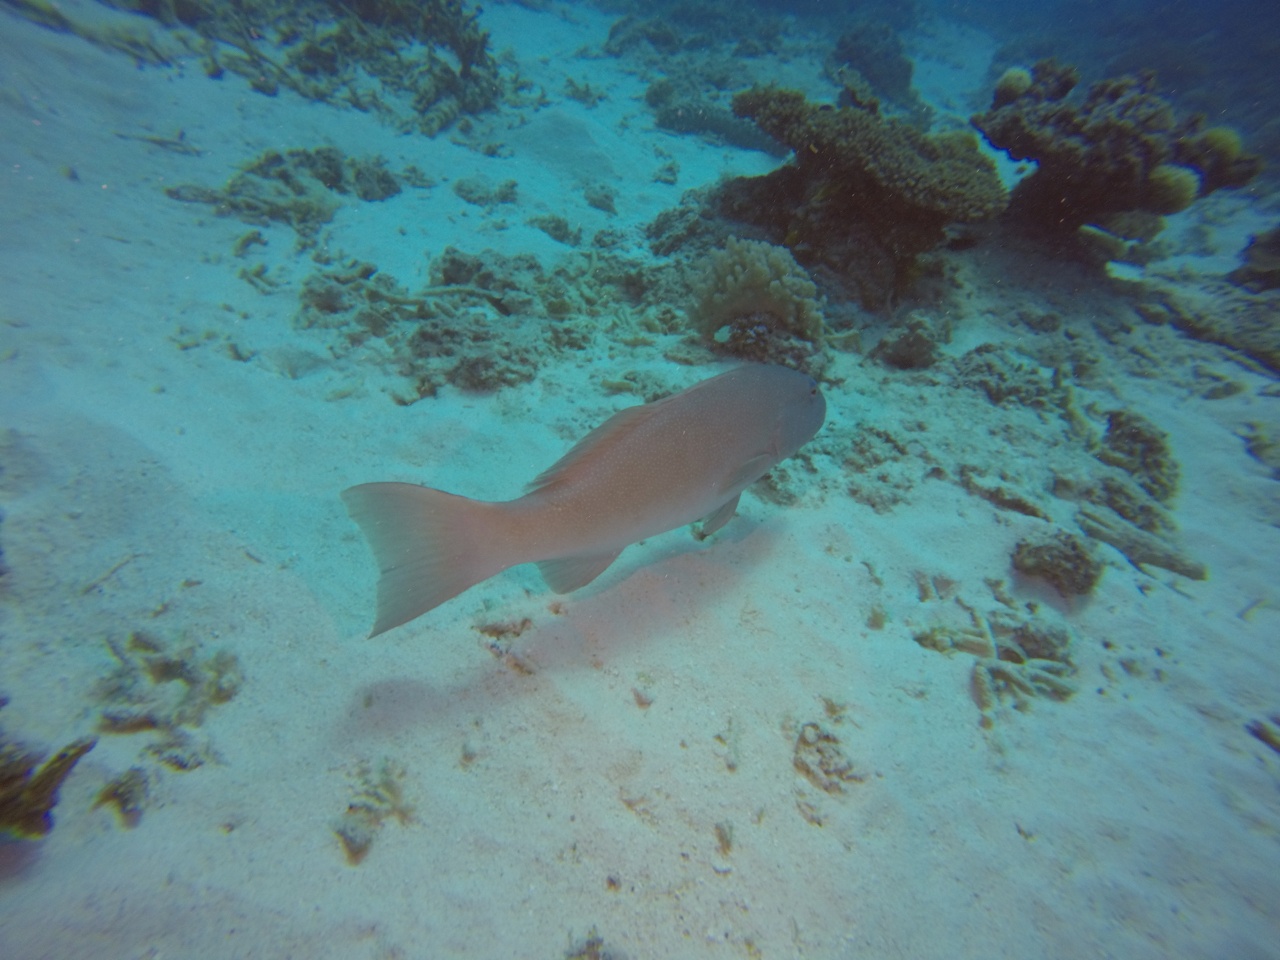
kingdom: Animalia
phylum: Chordata
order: Perciformes
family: Serranidae
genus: Plectropomus
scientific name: Plectropomus leopardus
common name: Coral trout
